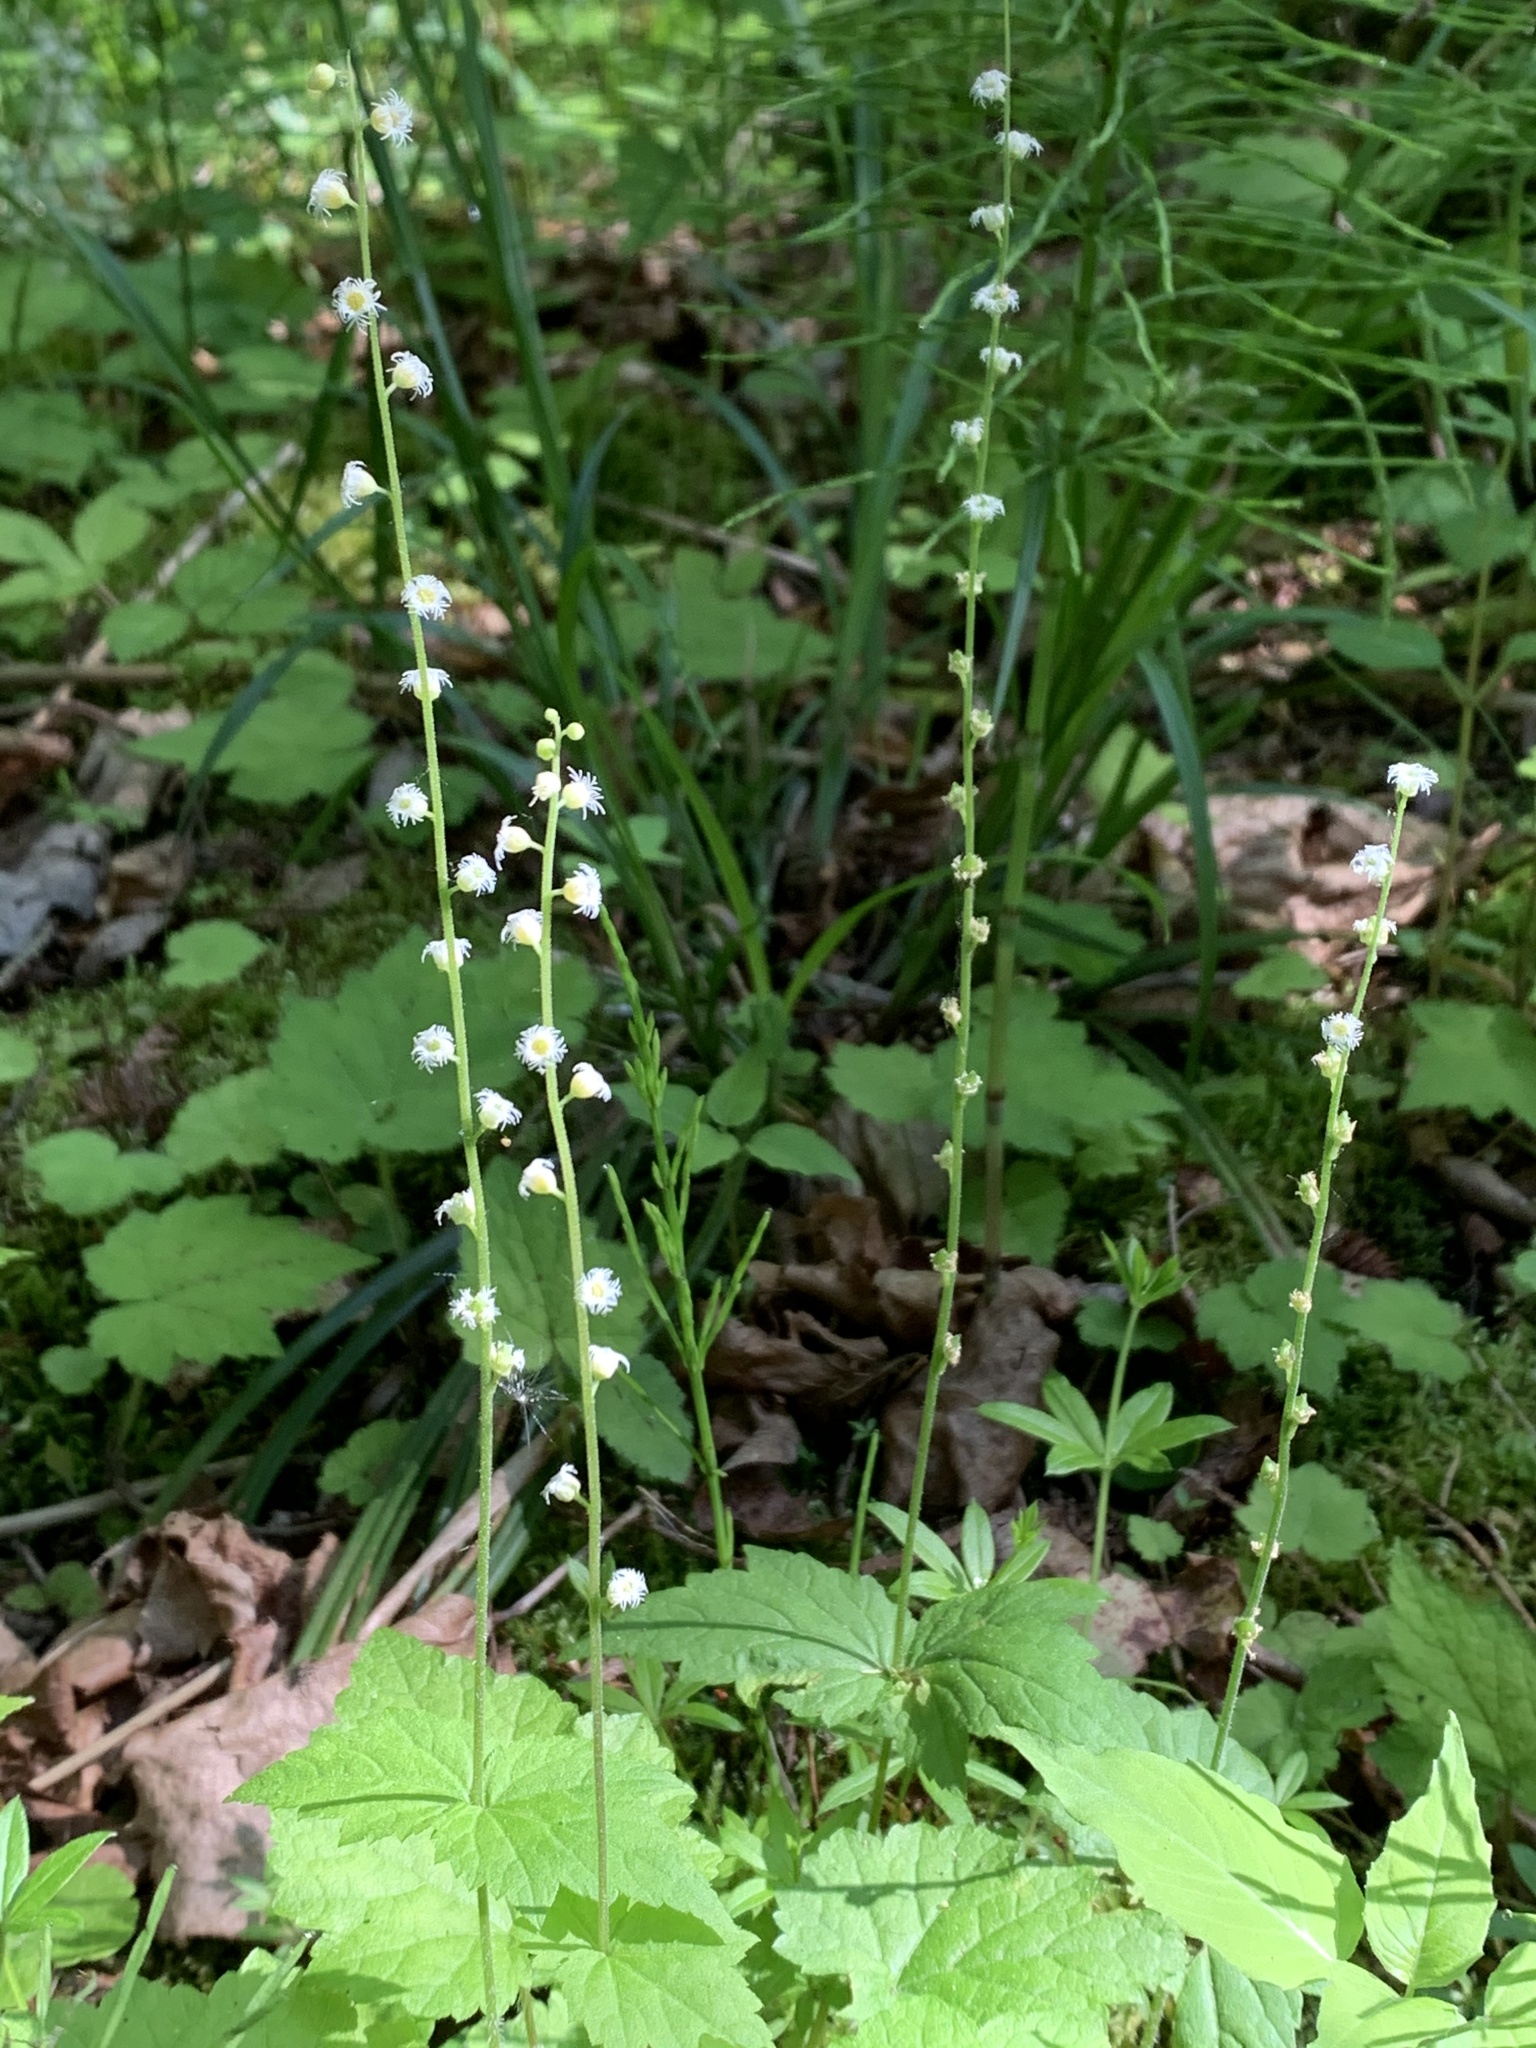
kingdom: Plantae
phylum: Tracheophyta
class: Magnoliopsida
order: Saxifragales
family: Saxifragaceae
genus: Mitella
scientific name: Mitella diphylla
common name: Coolwort
